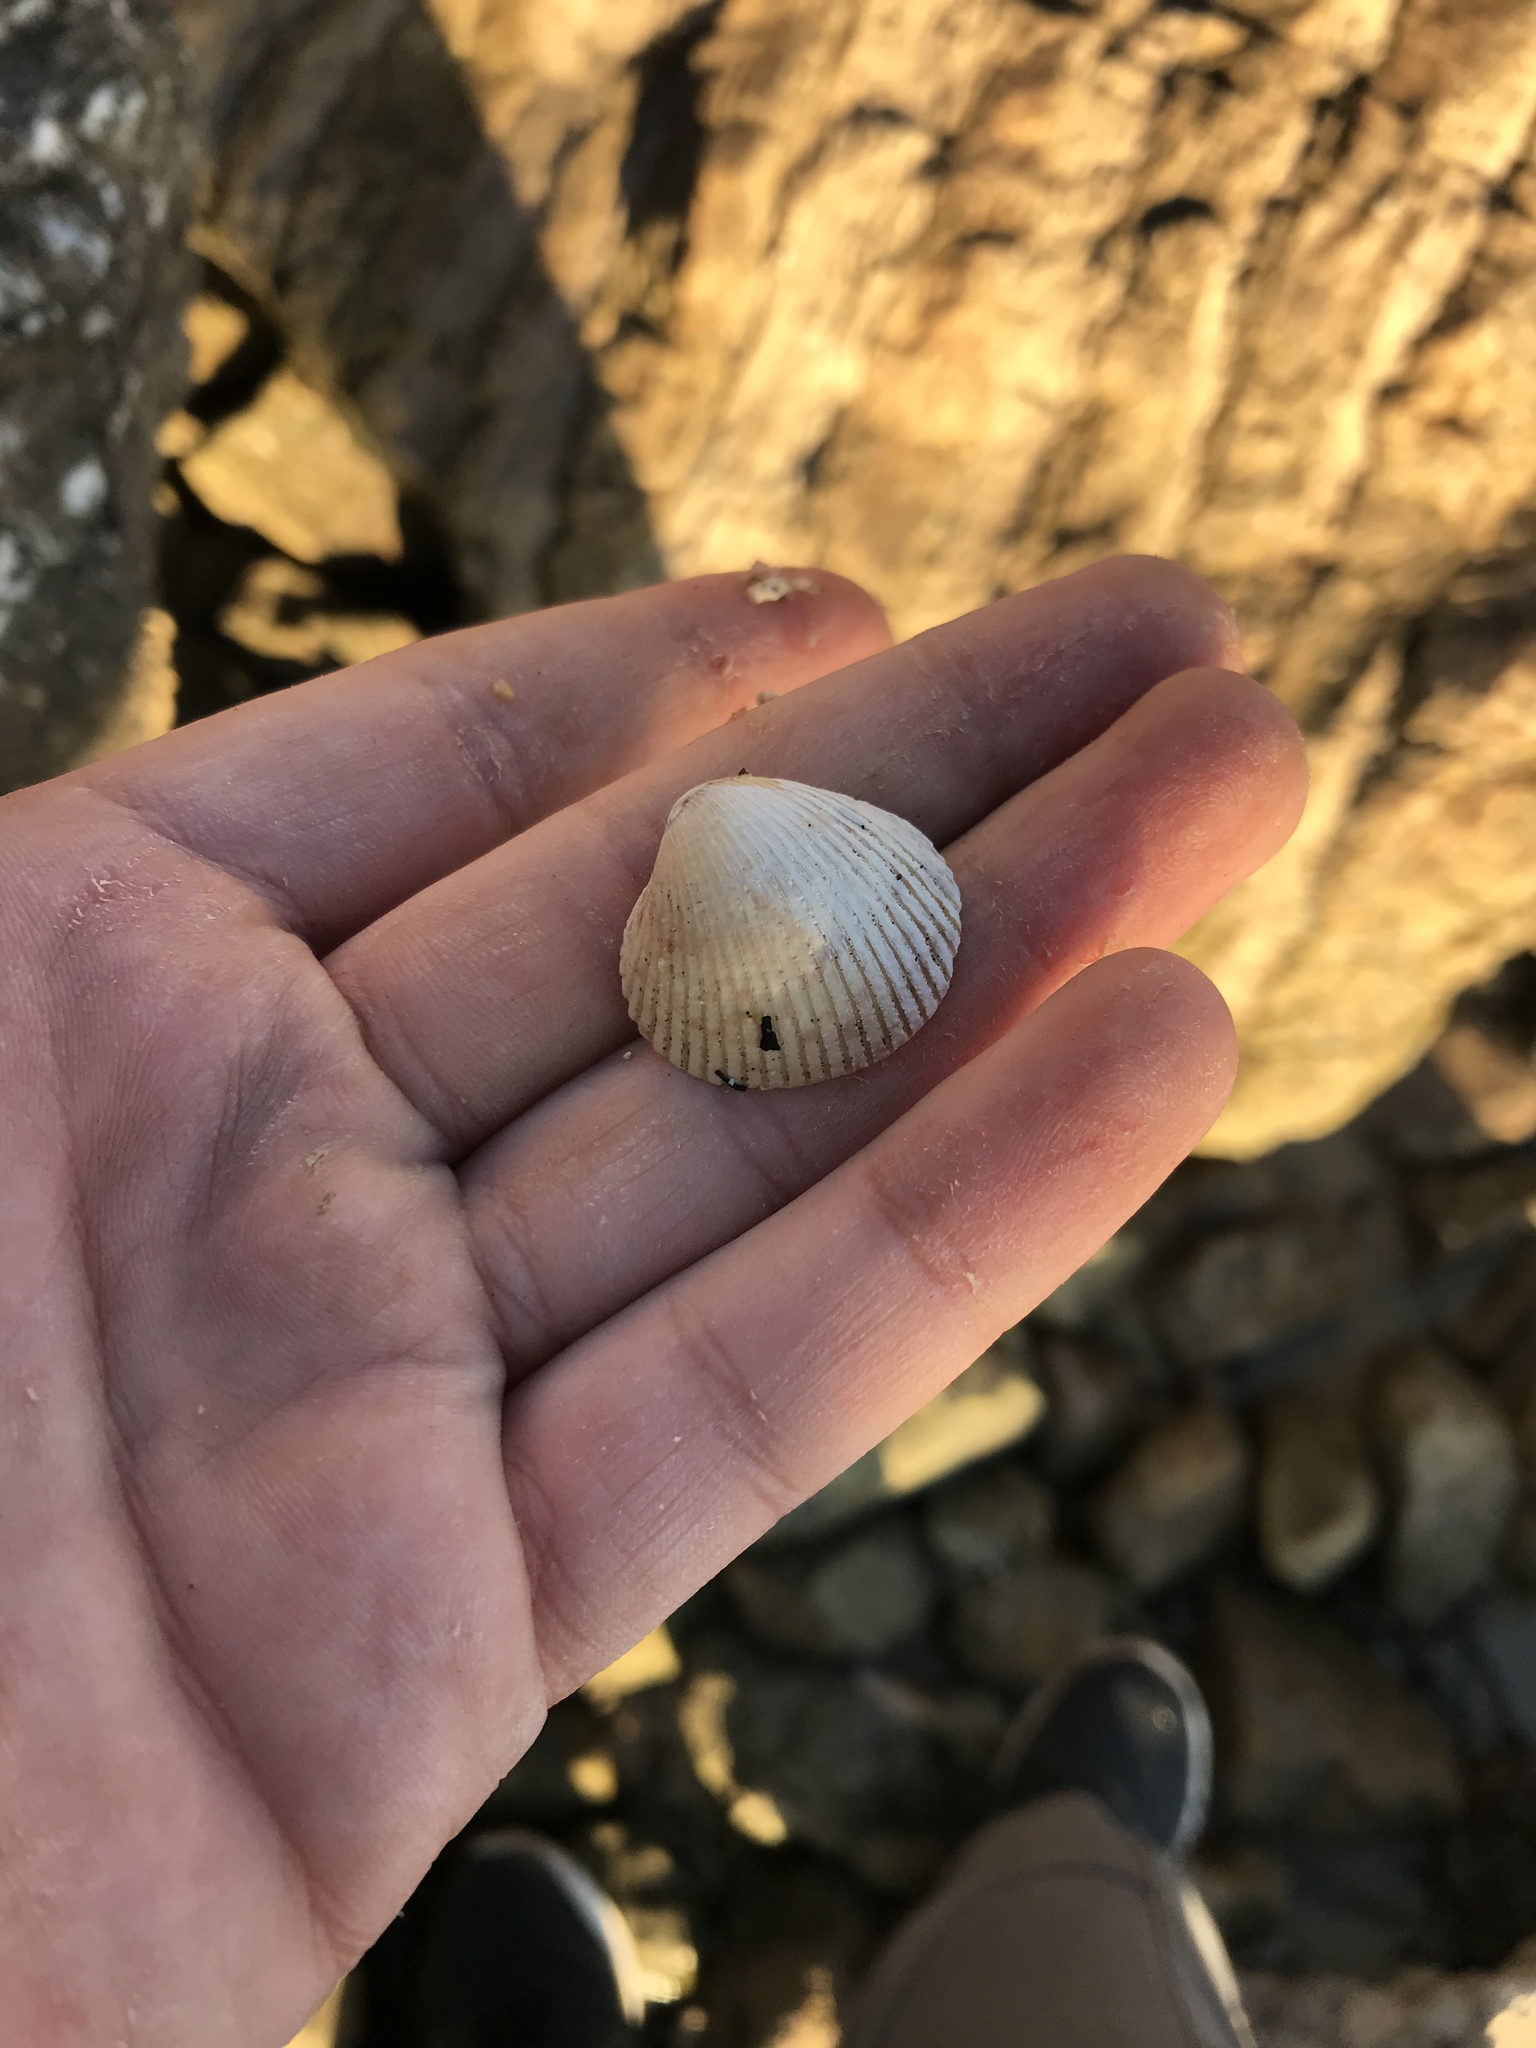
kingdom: Animalia
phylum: Mollusca
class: Bivalvia
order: Cardiida
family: Cardiidae
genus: Clinocardium
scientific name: Clinocardium nuttallii
